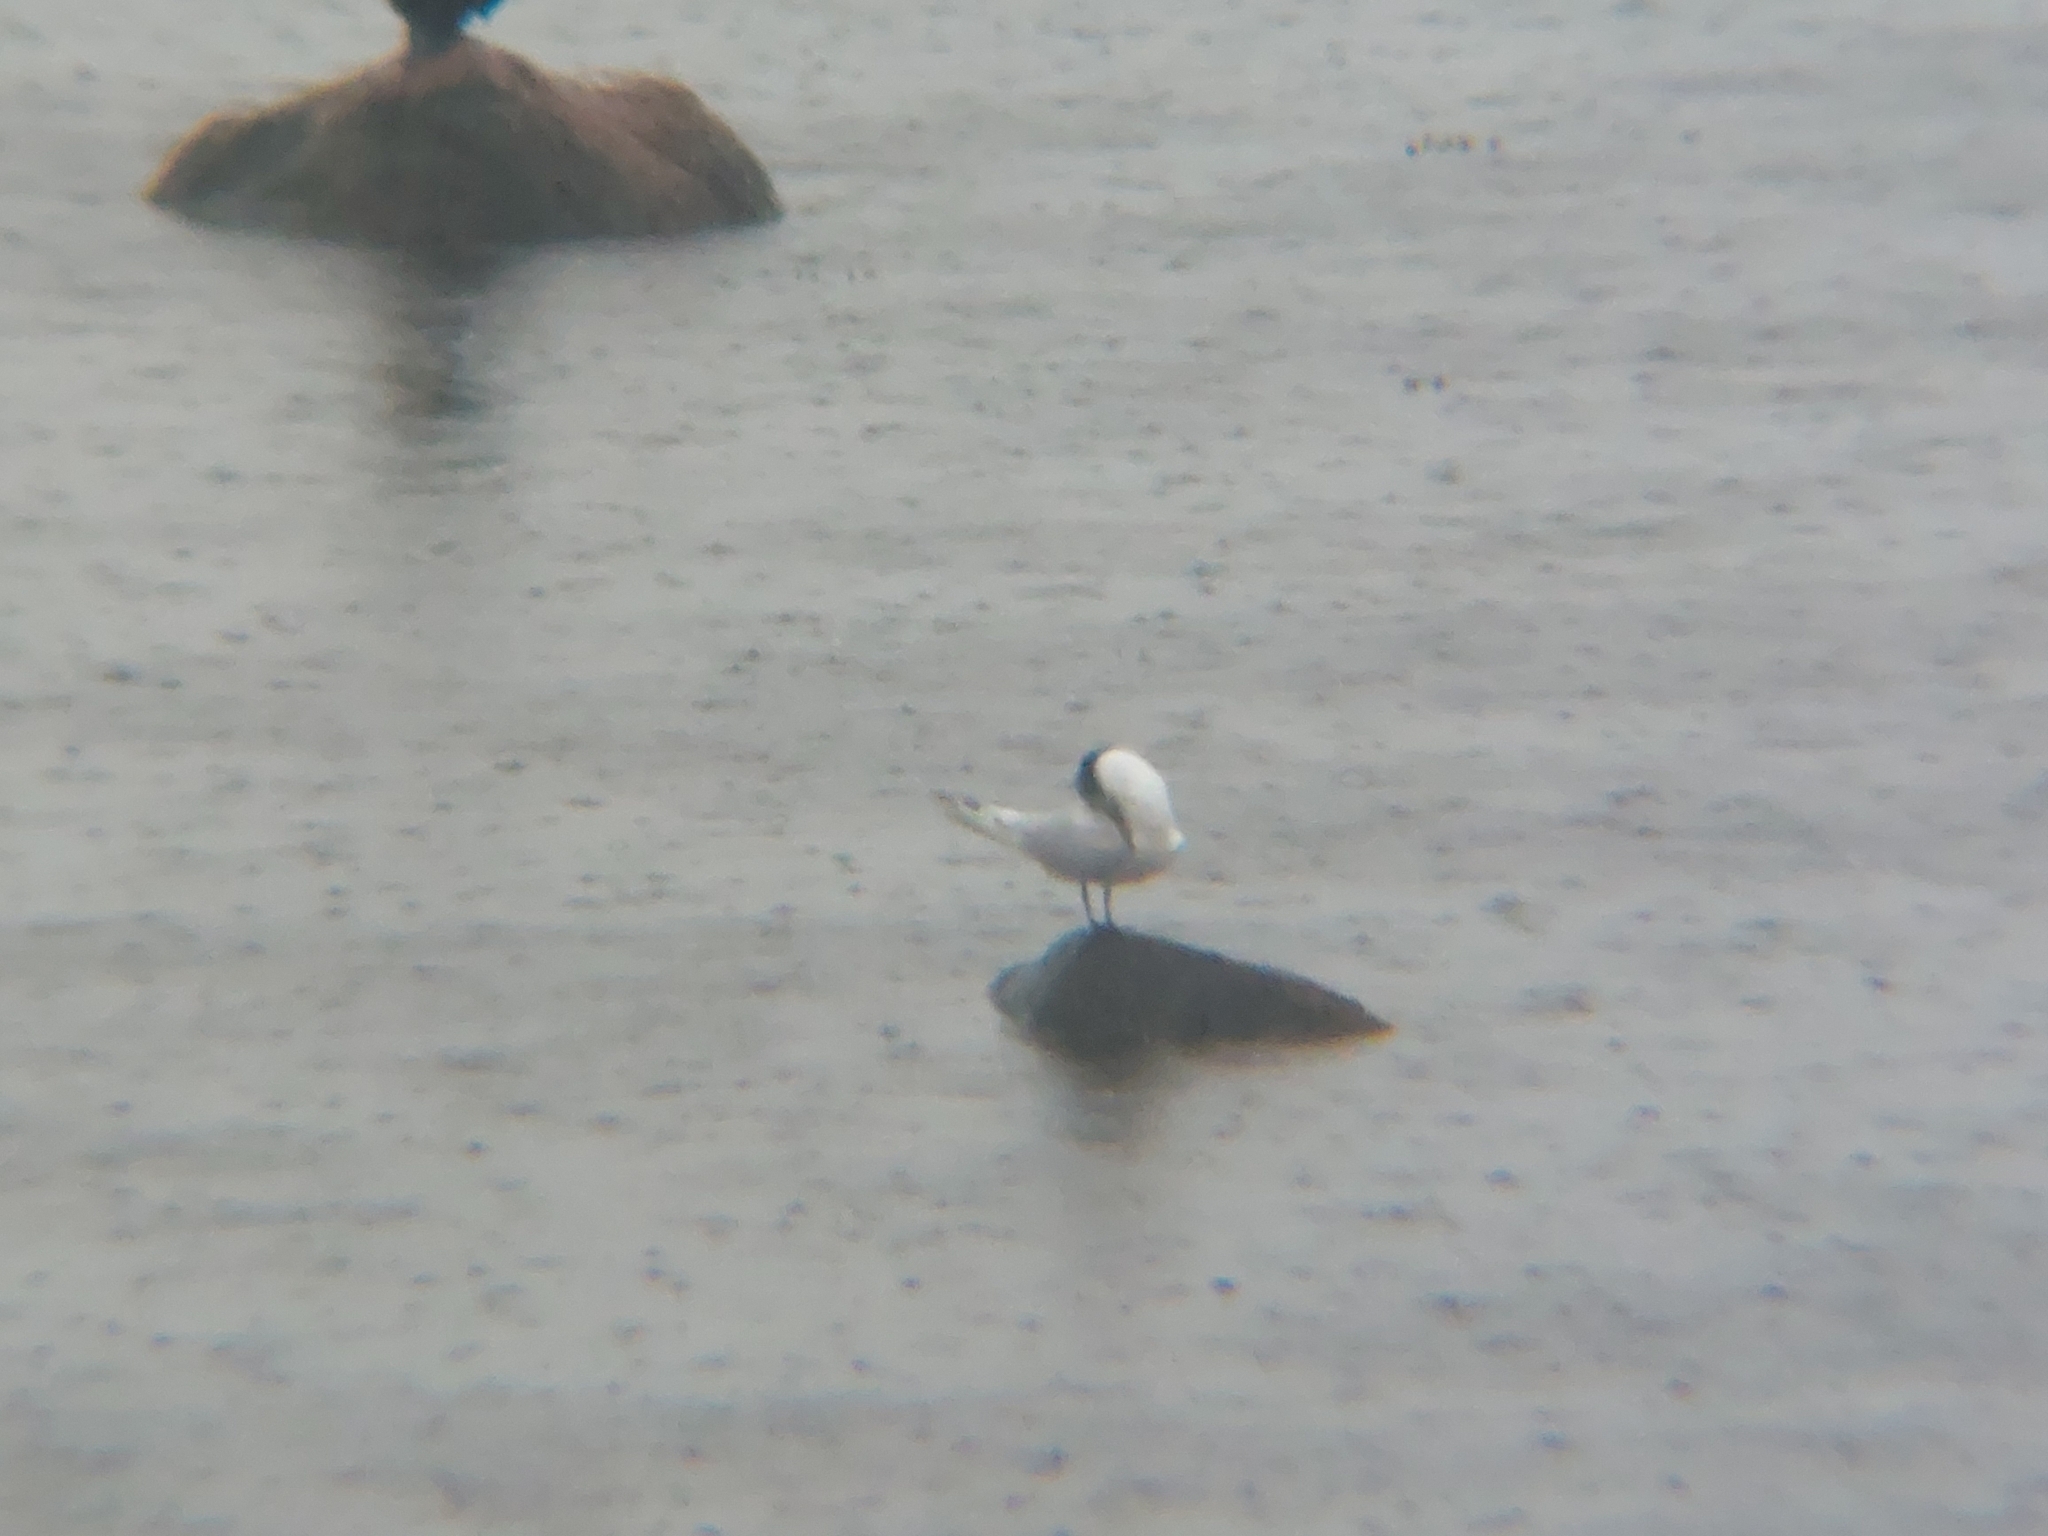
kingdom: Animalia
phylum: Chordata
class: Aves
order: Charadriiformes
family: Laridae
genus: Thalasseus
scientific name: Thalasseus sandvicensis
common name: Sandwich tern
